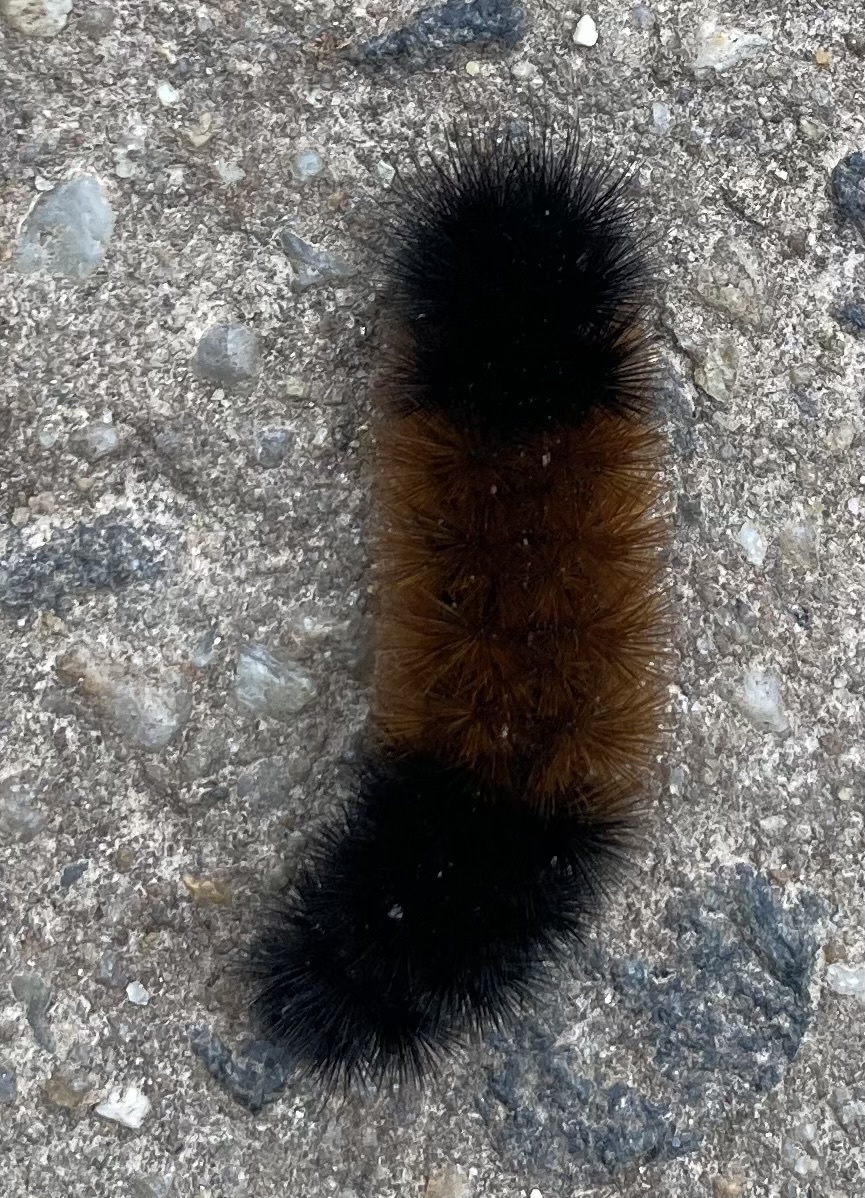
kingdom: Animalia
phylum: Arthropoda
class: Insecta
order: Lepidoptera
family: Erebidae
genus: Pyrrharctia
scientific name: Pyrrharctia isabella
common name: Isabella tiger moth
